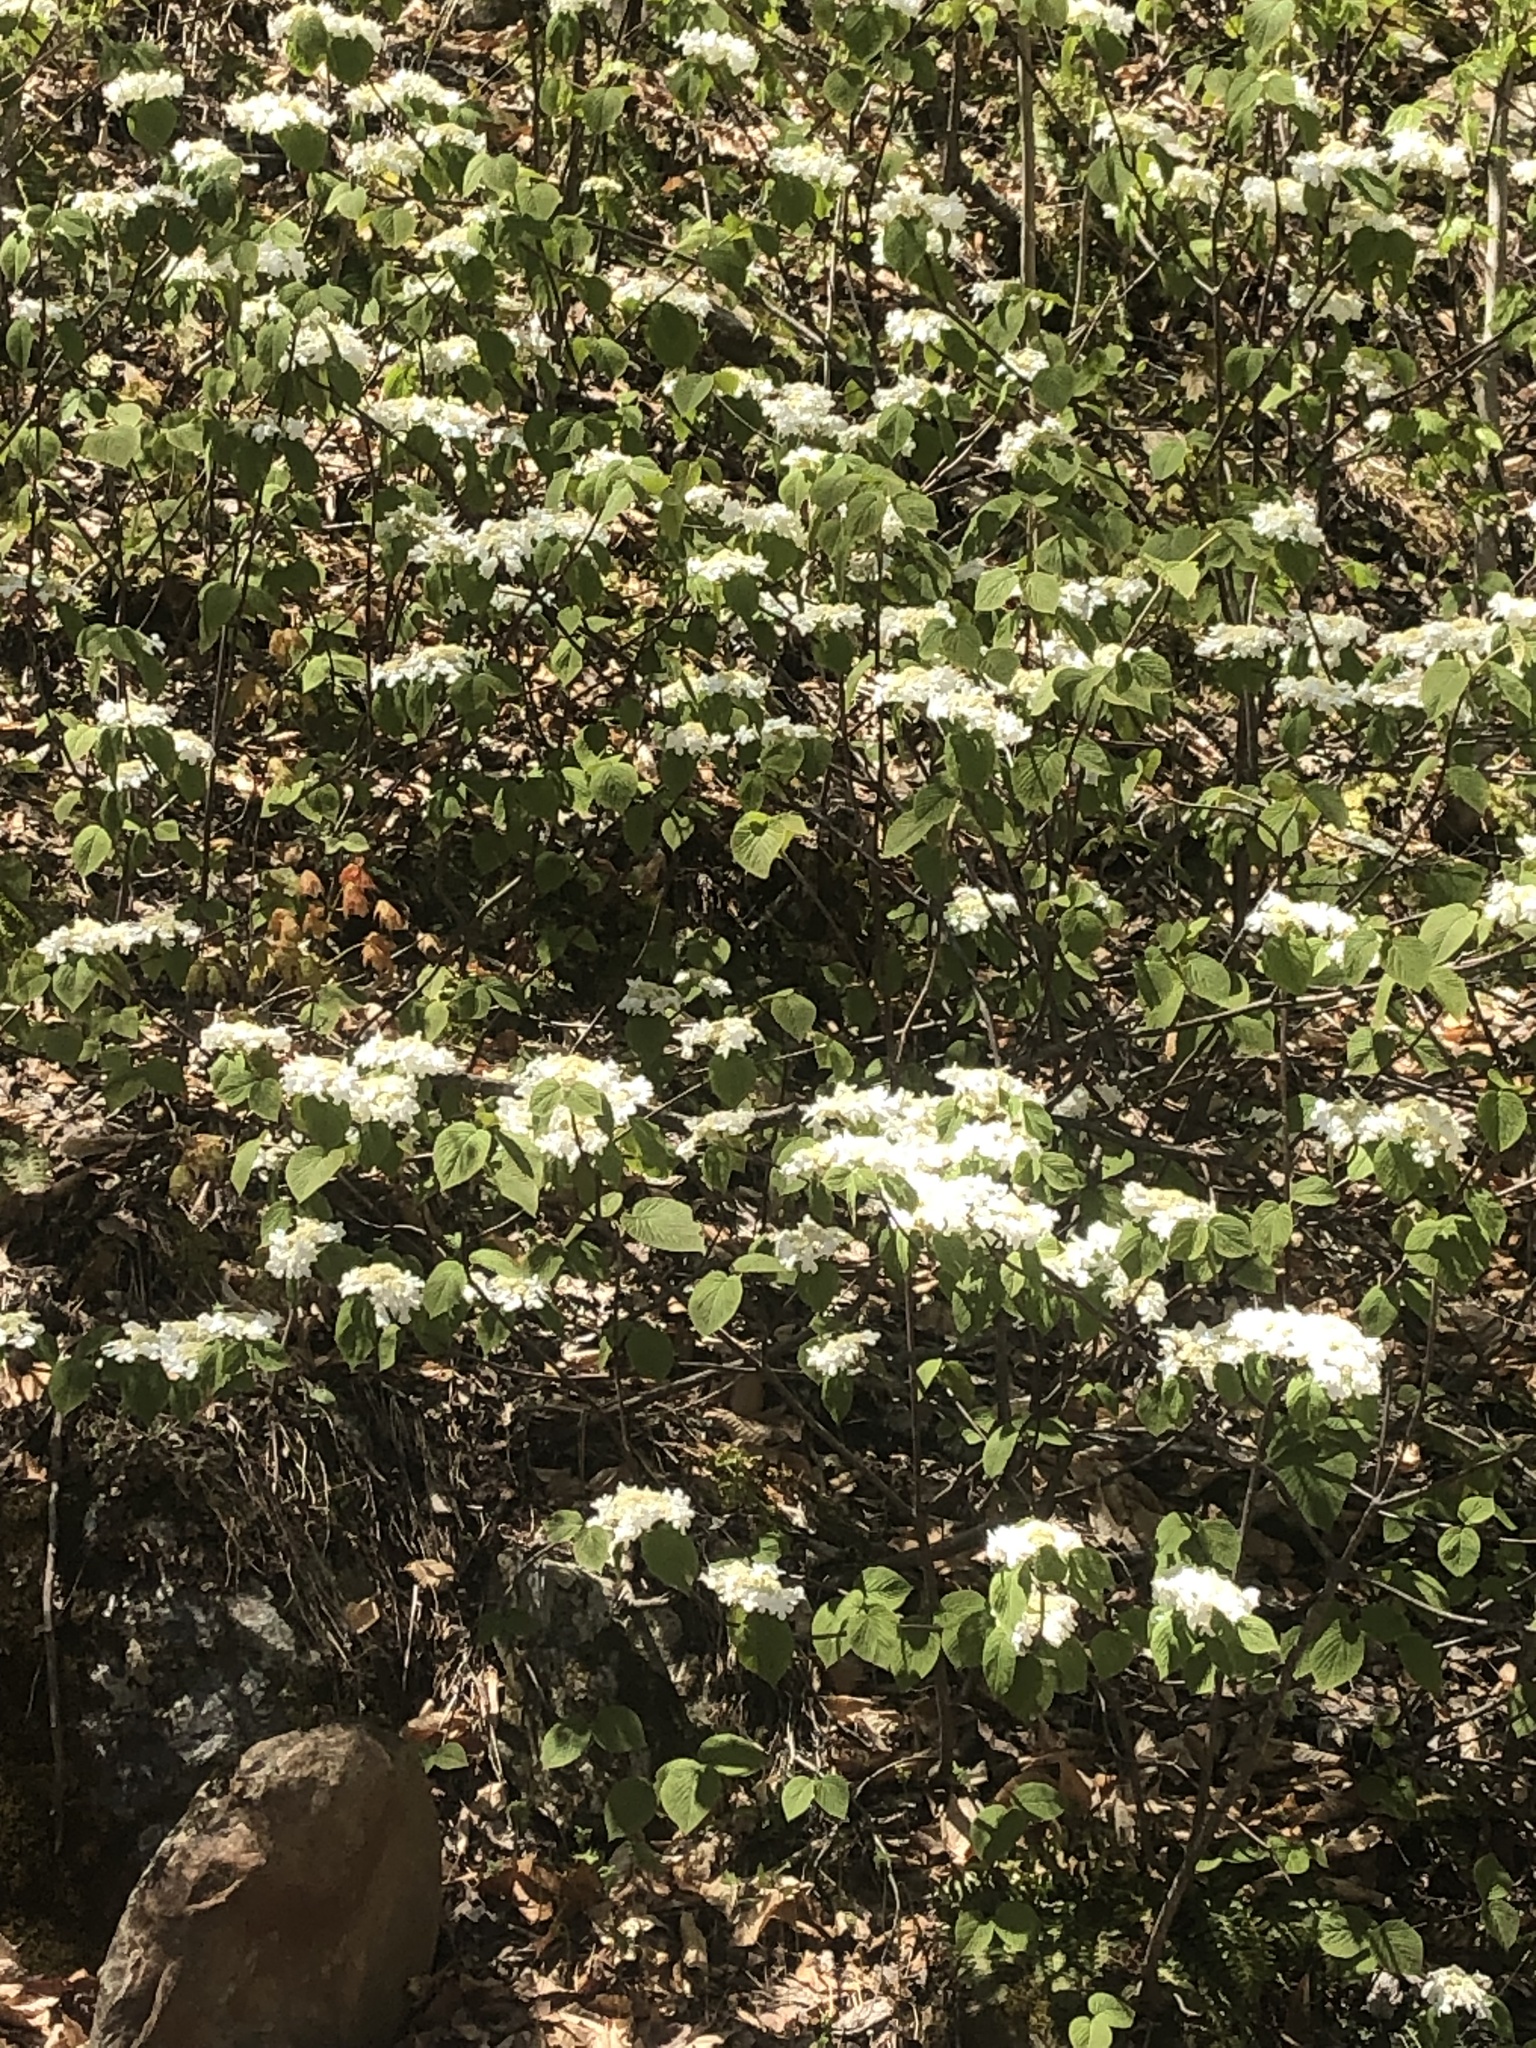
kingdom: Plantae
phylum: Tracheophyta
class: Magnoliopsida
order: Dipsacales
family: Viburnaceae
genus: Viburnum
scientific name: Viburnum lantanoides
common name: Hobblebush
